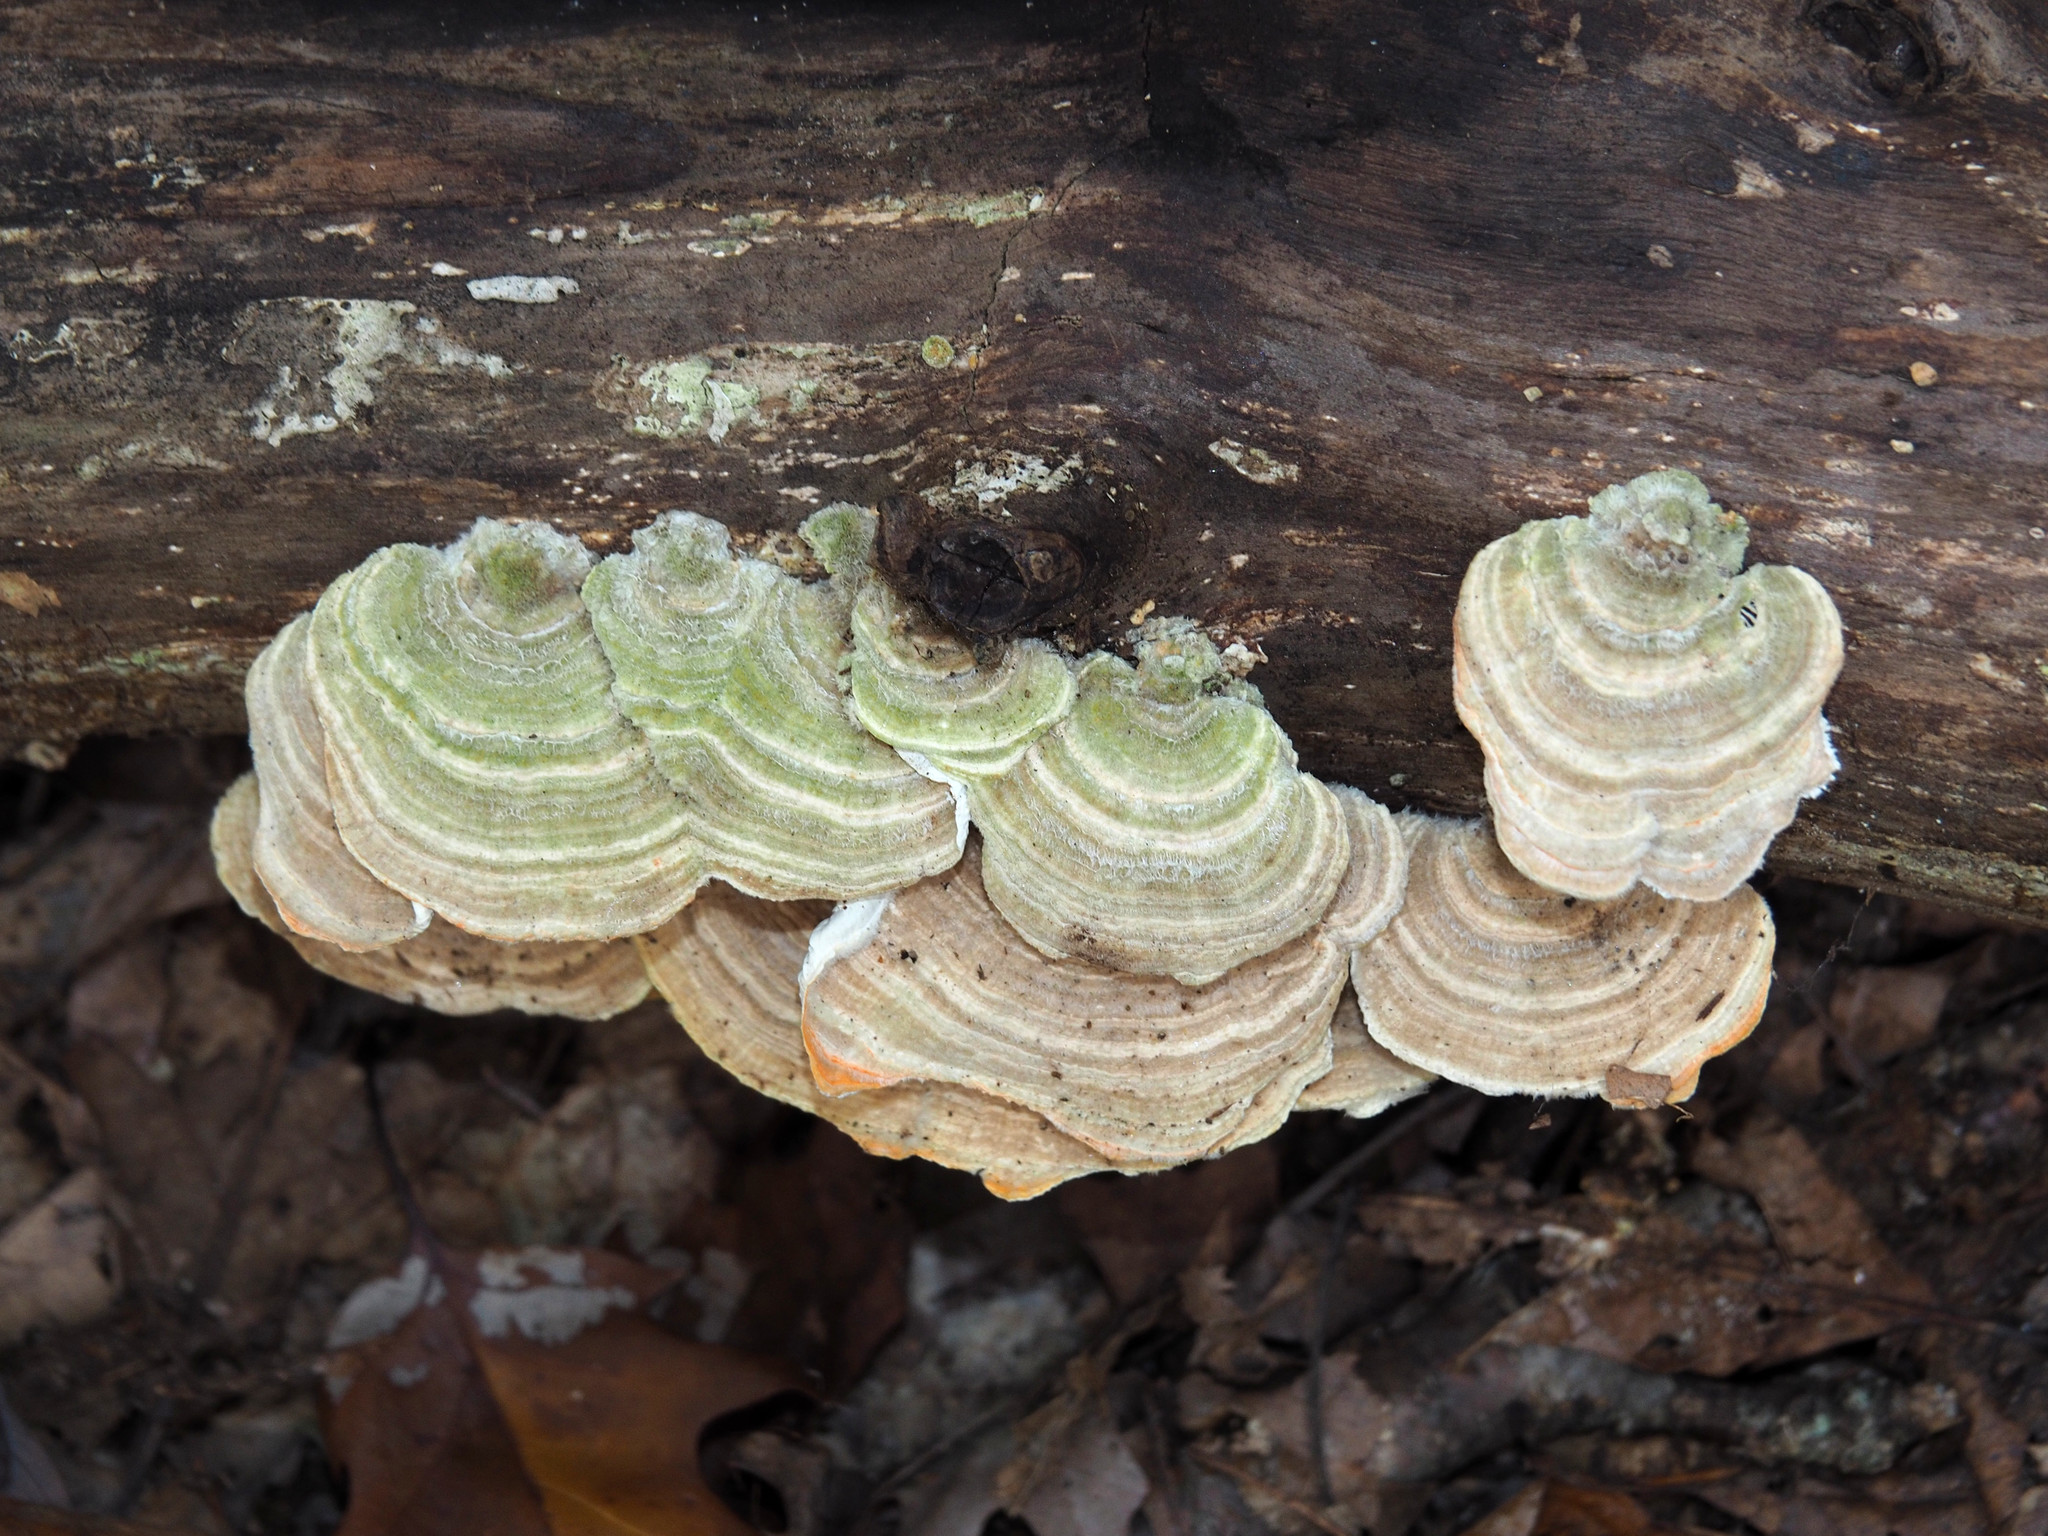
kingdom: Fungi
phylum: Basidiomycota
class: Agaricomycetes
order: Polyporales
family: Polyporaceae
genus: Lenzites
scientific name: Lenzites betulinus
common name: Birch mazegill
